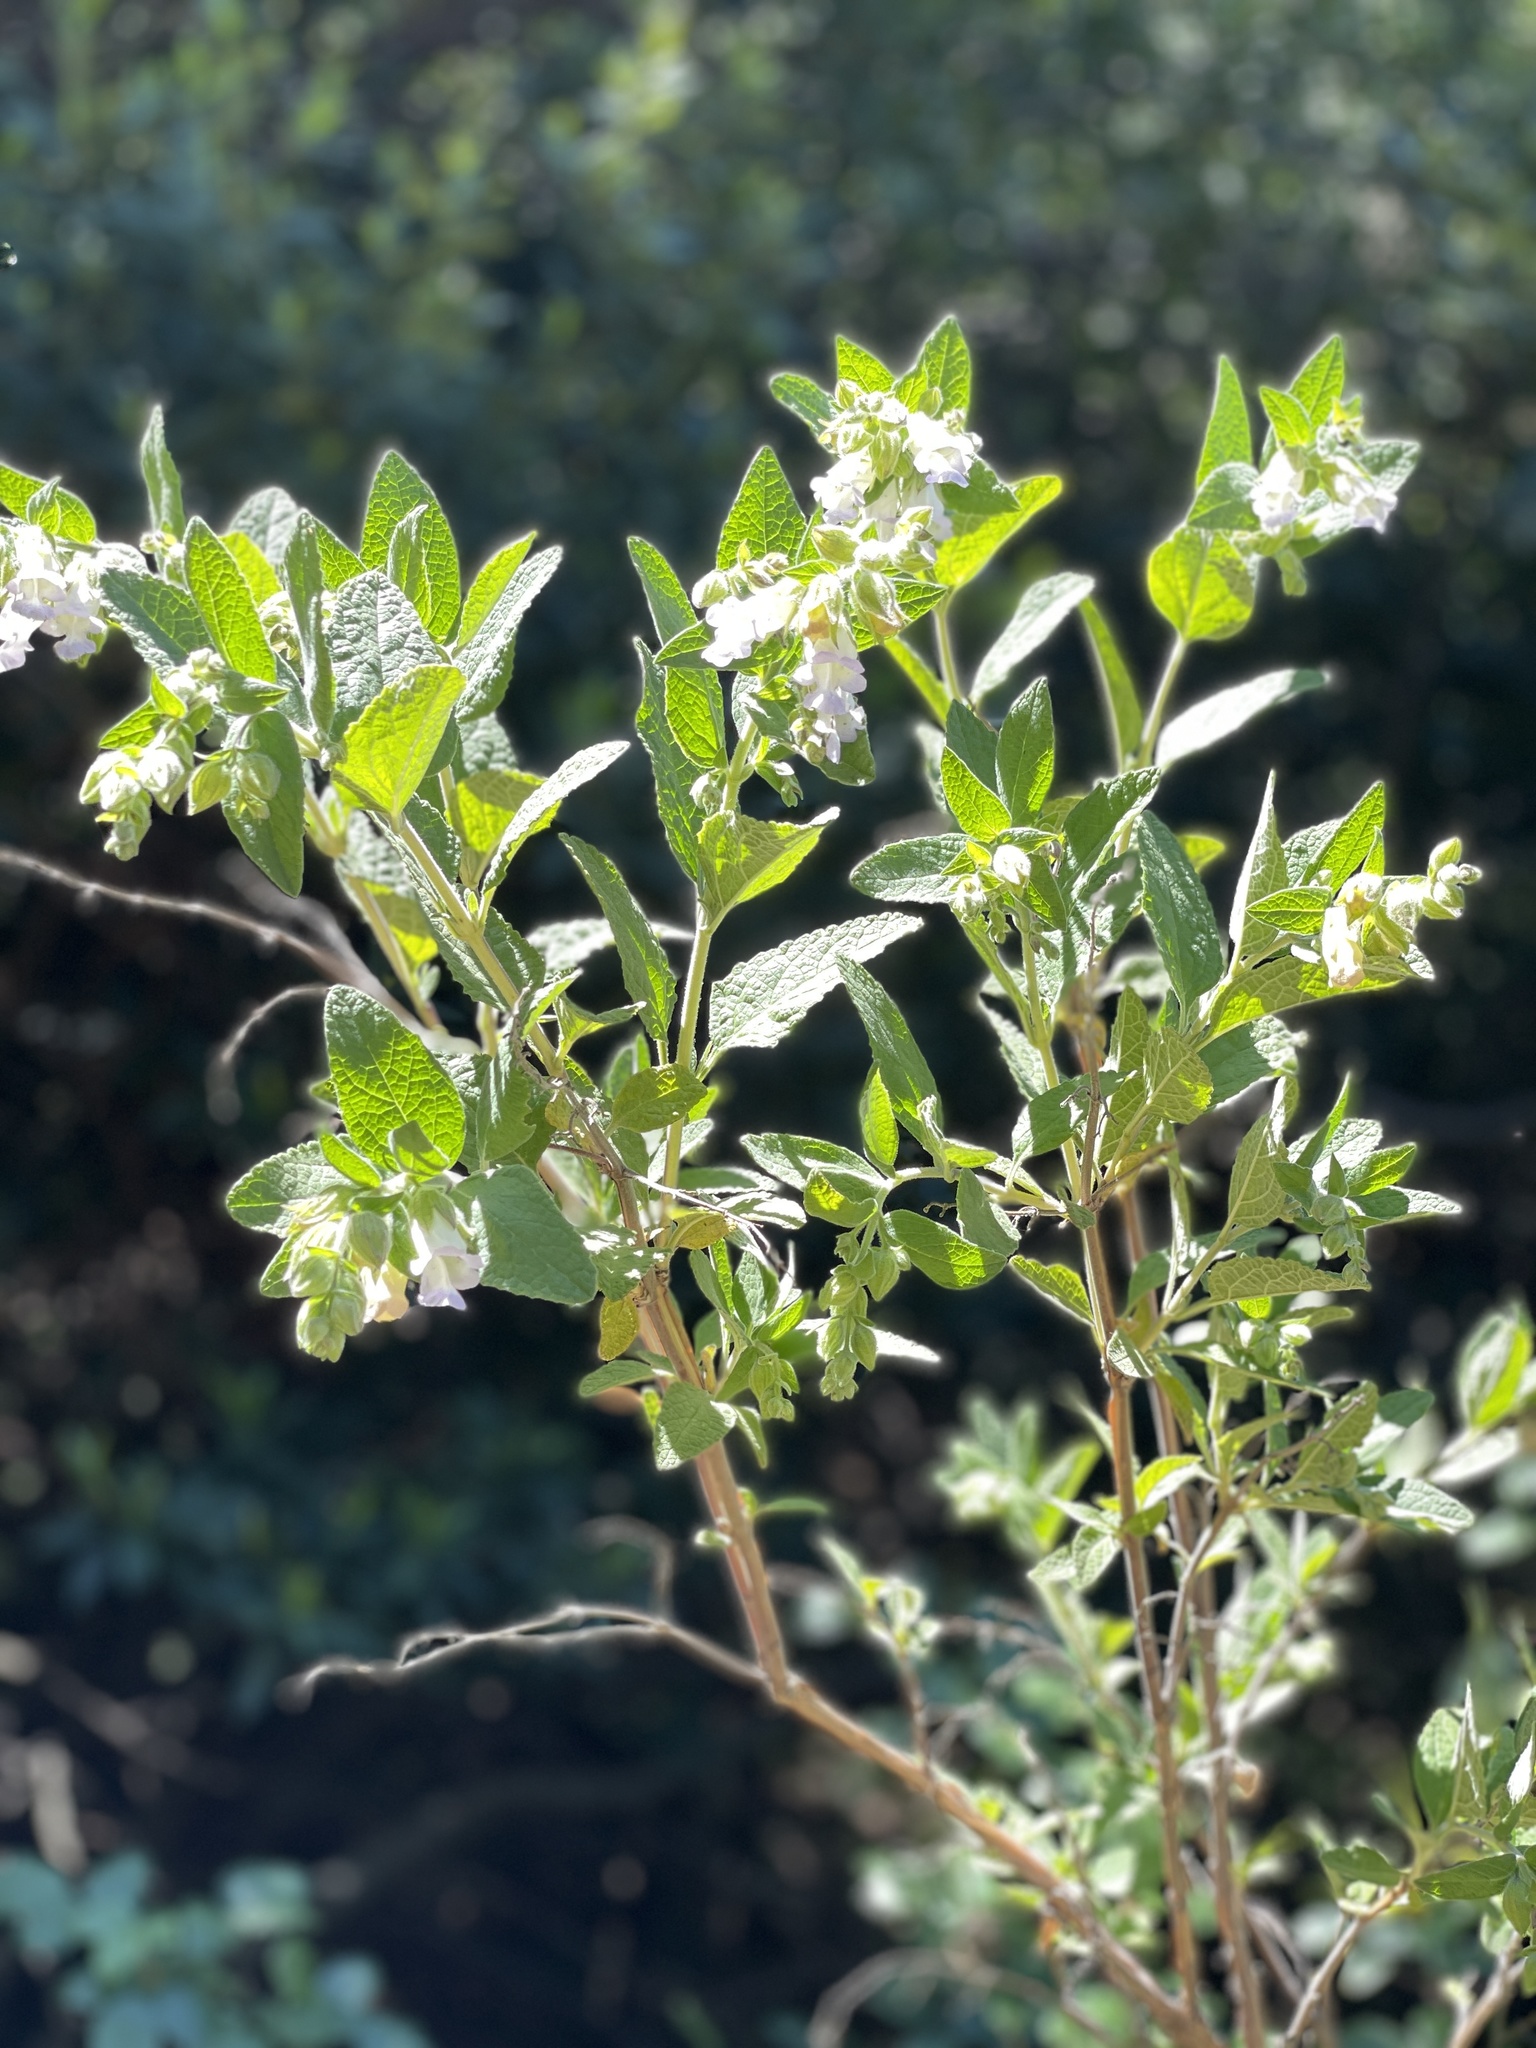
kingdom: Plantae
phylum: Tracheophyta
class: Magnoliopsida
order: Lamiales
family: Lamiaceae
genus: Lepechinia
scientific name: Lepechinia calycina
